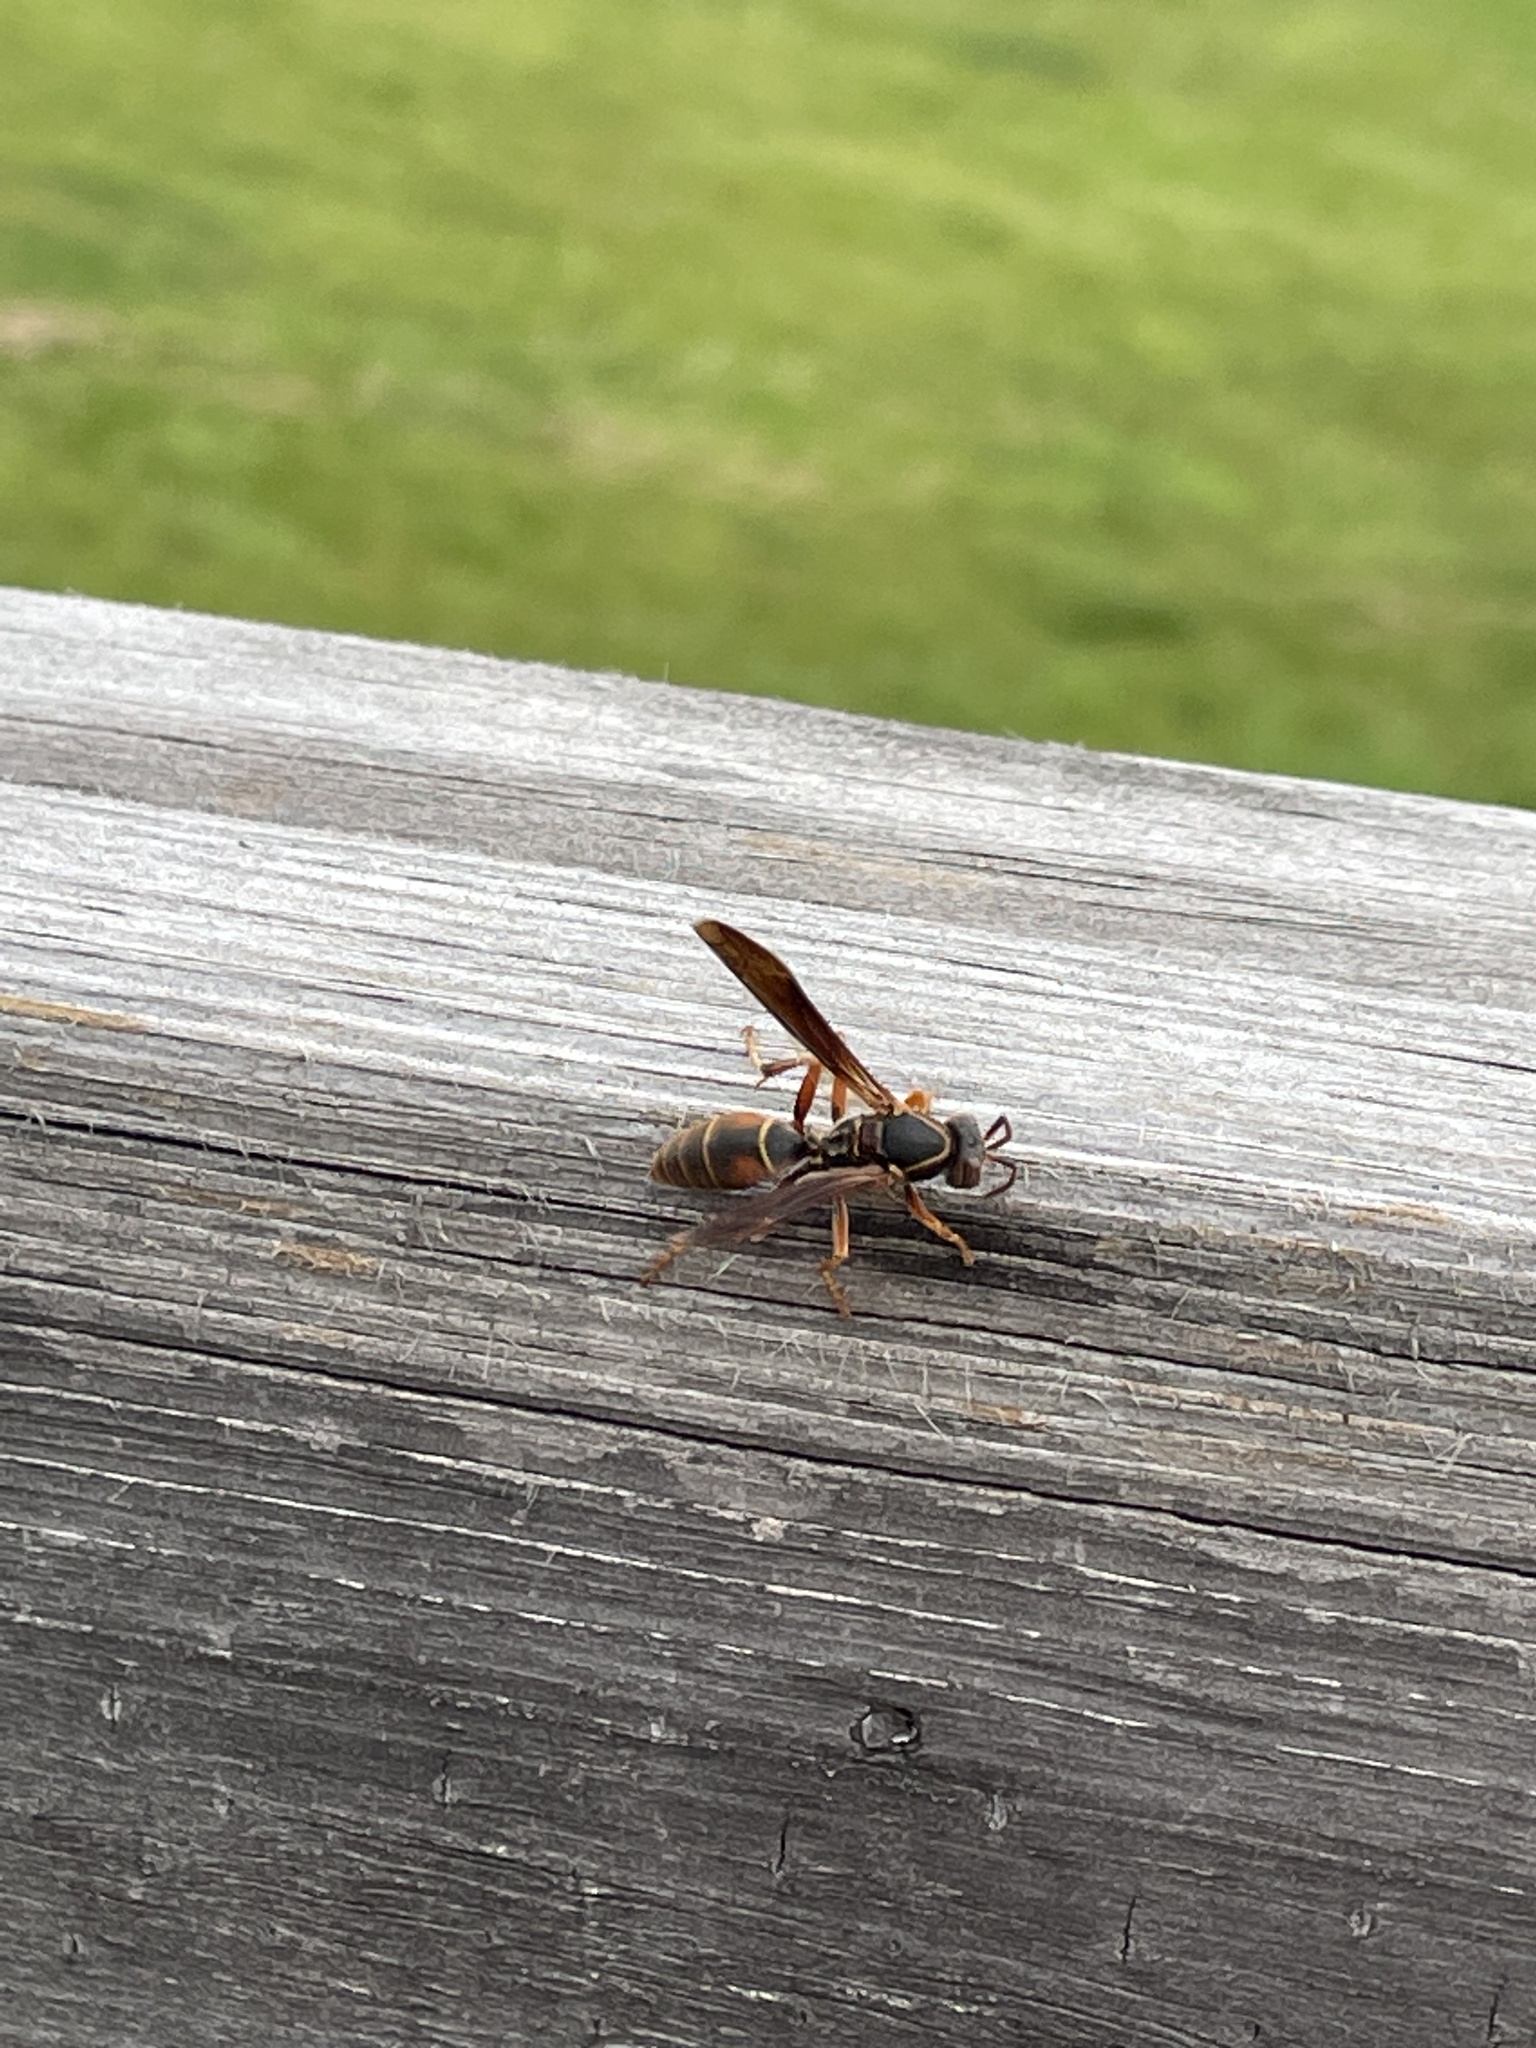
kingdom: Animalia
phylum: Arthropoda
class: Insecta
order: Hymenoptera
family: Eumenidae
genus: Polistes
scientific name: Polistes fuscatus
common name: Dark paper wasp
